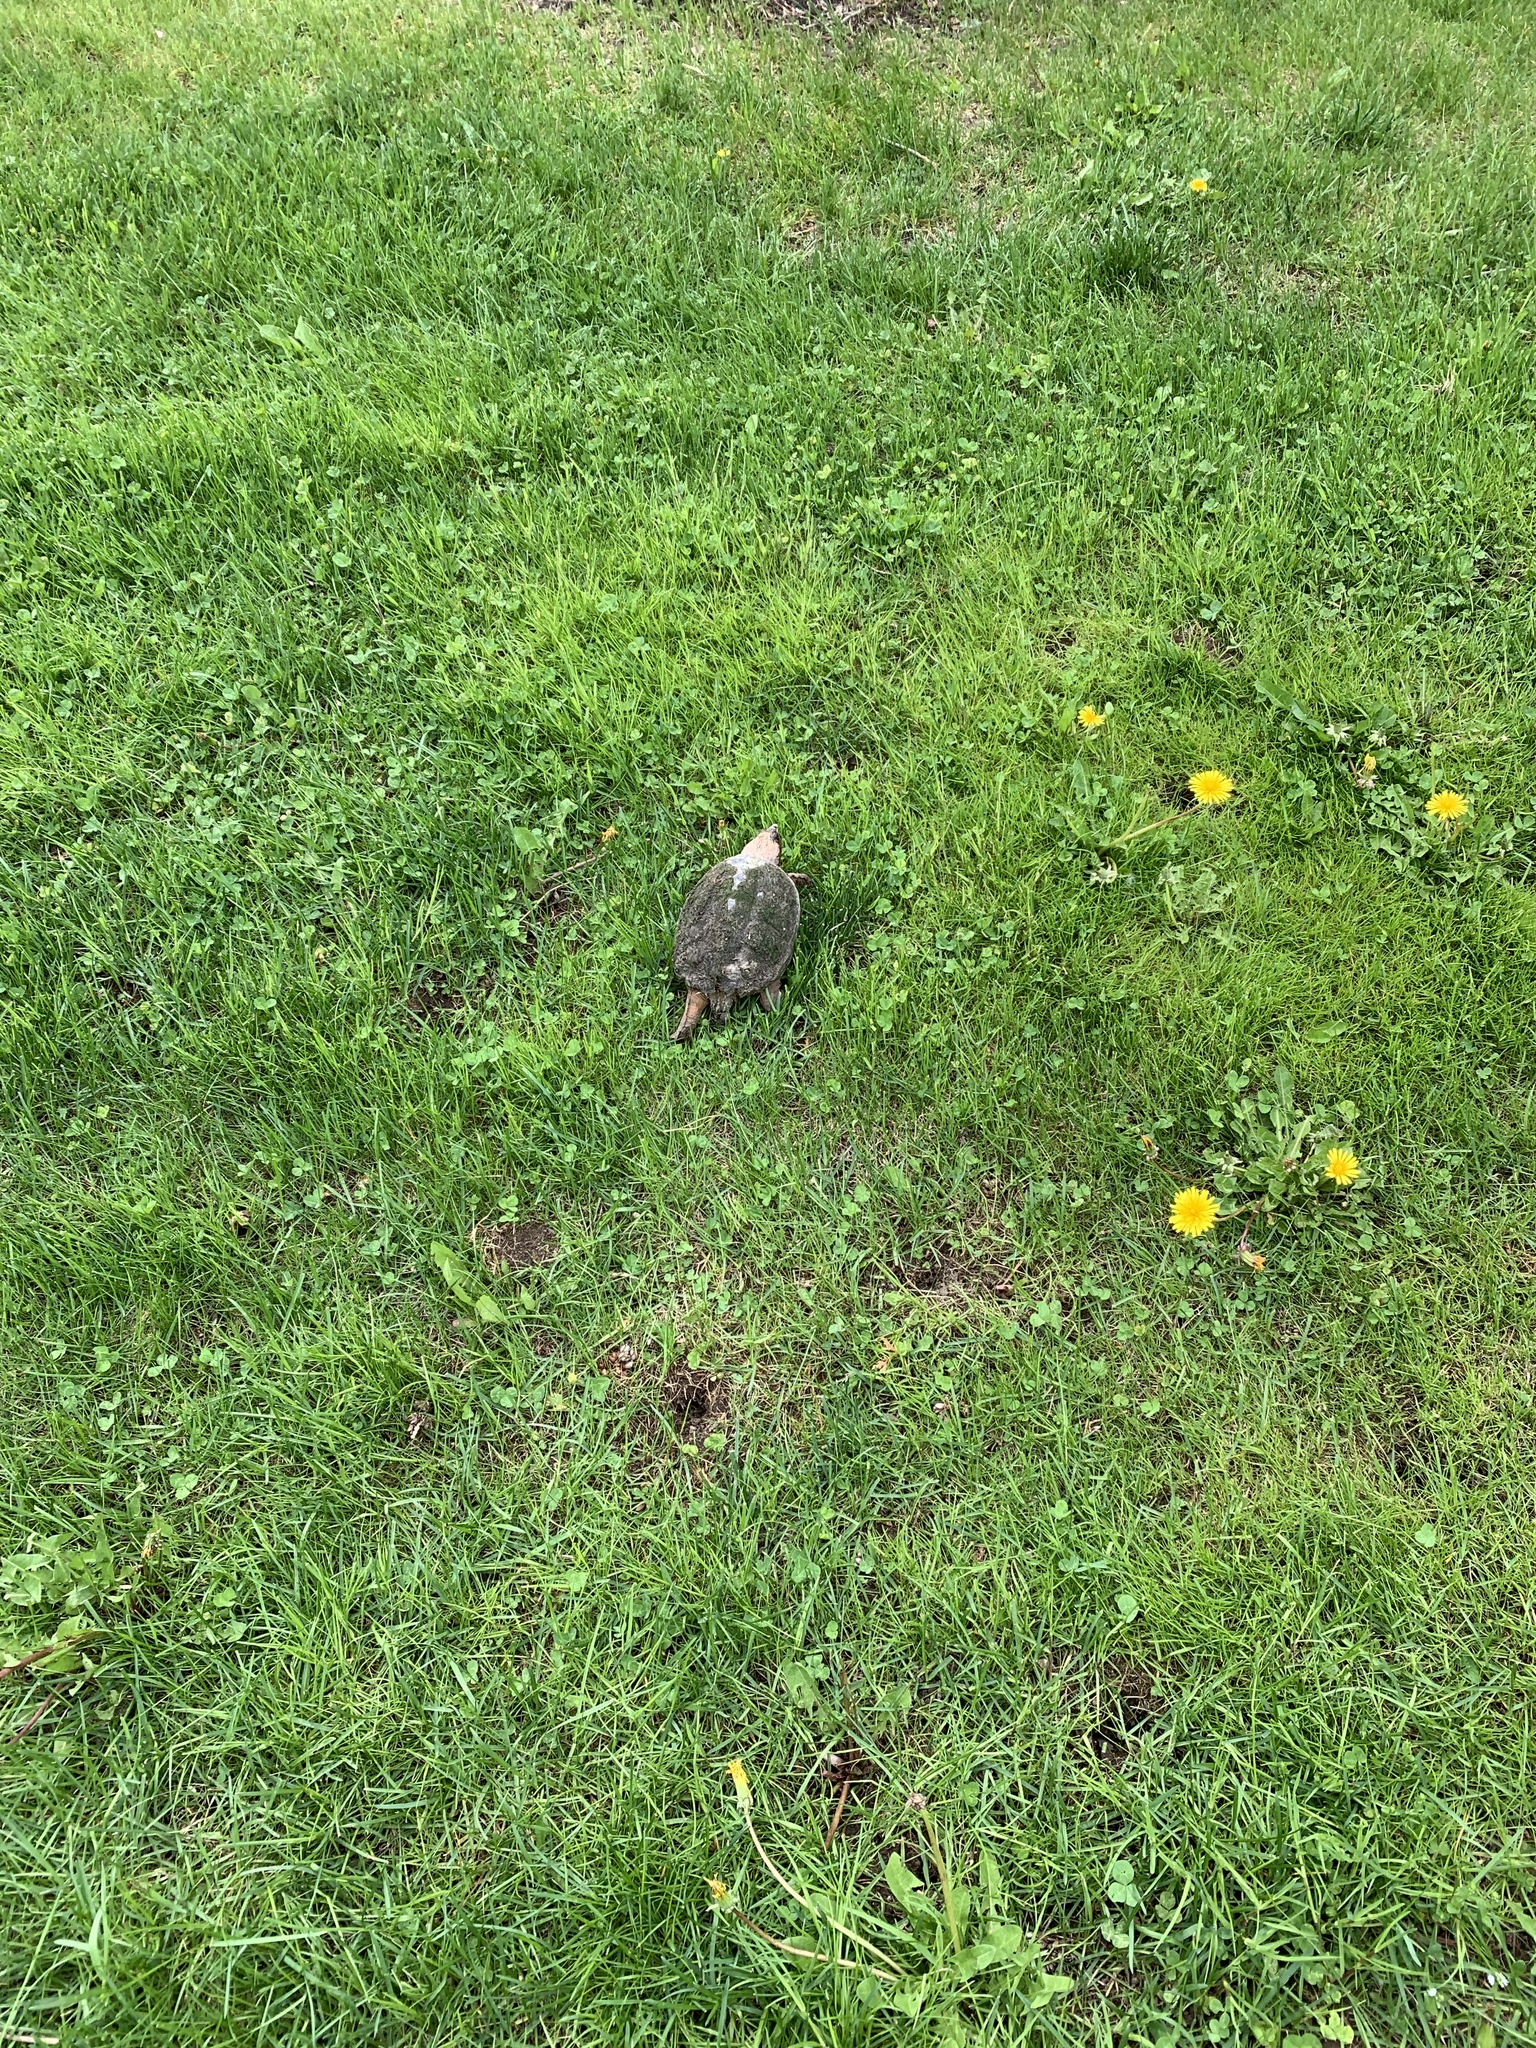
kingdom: Animalia
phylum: Chordata
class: Testudines
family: Chelydridae
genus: Chelydra
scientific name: Chelydra serpentina
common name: Common snapping turtle
